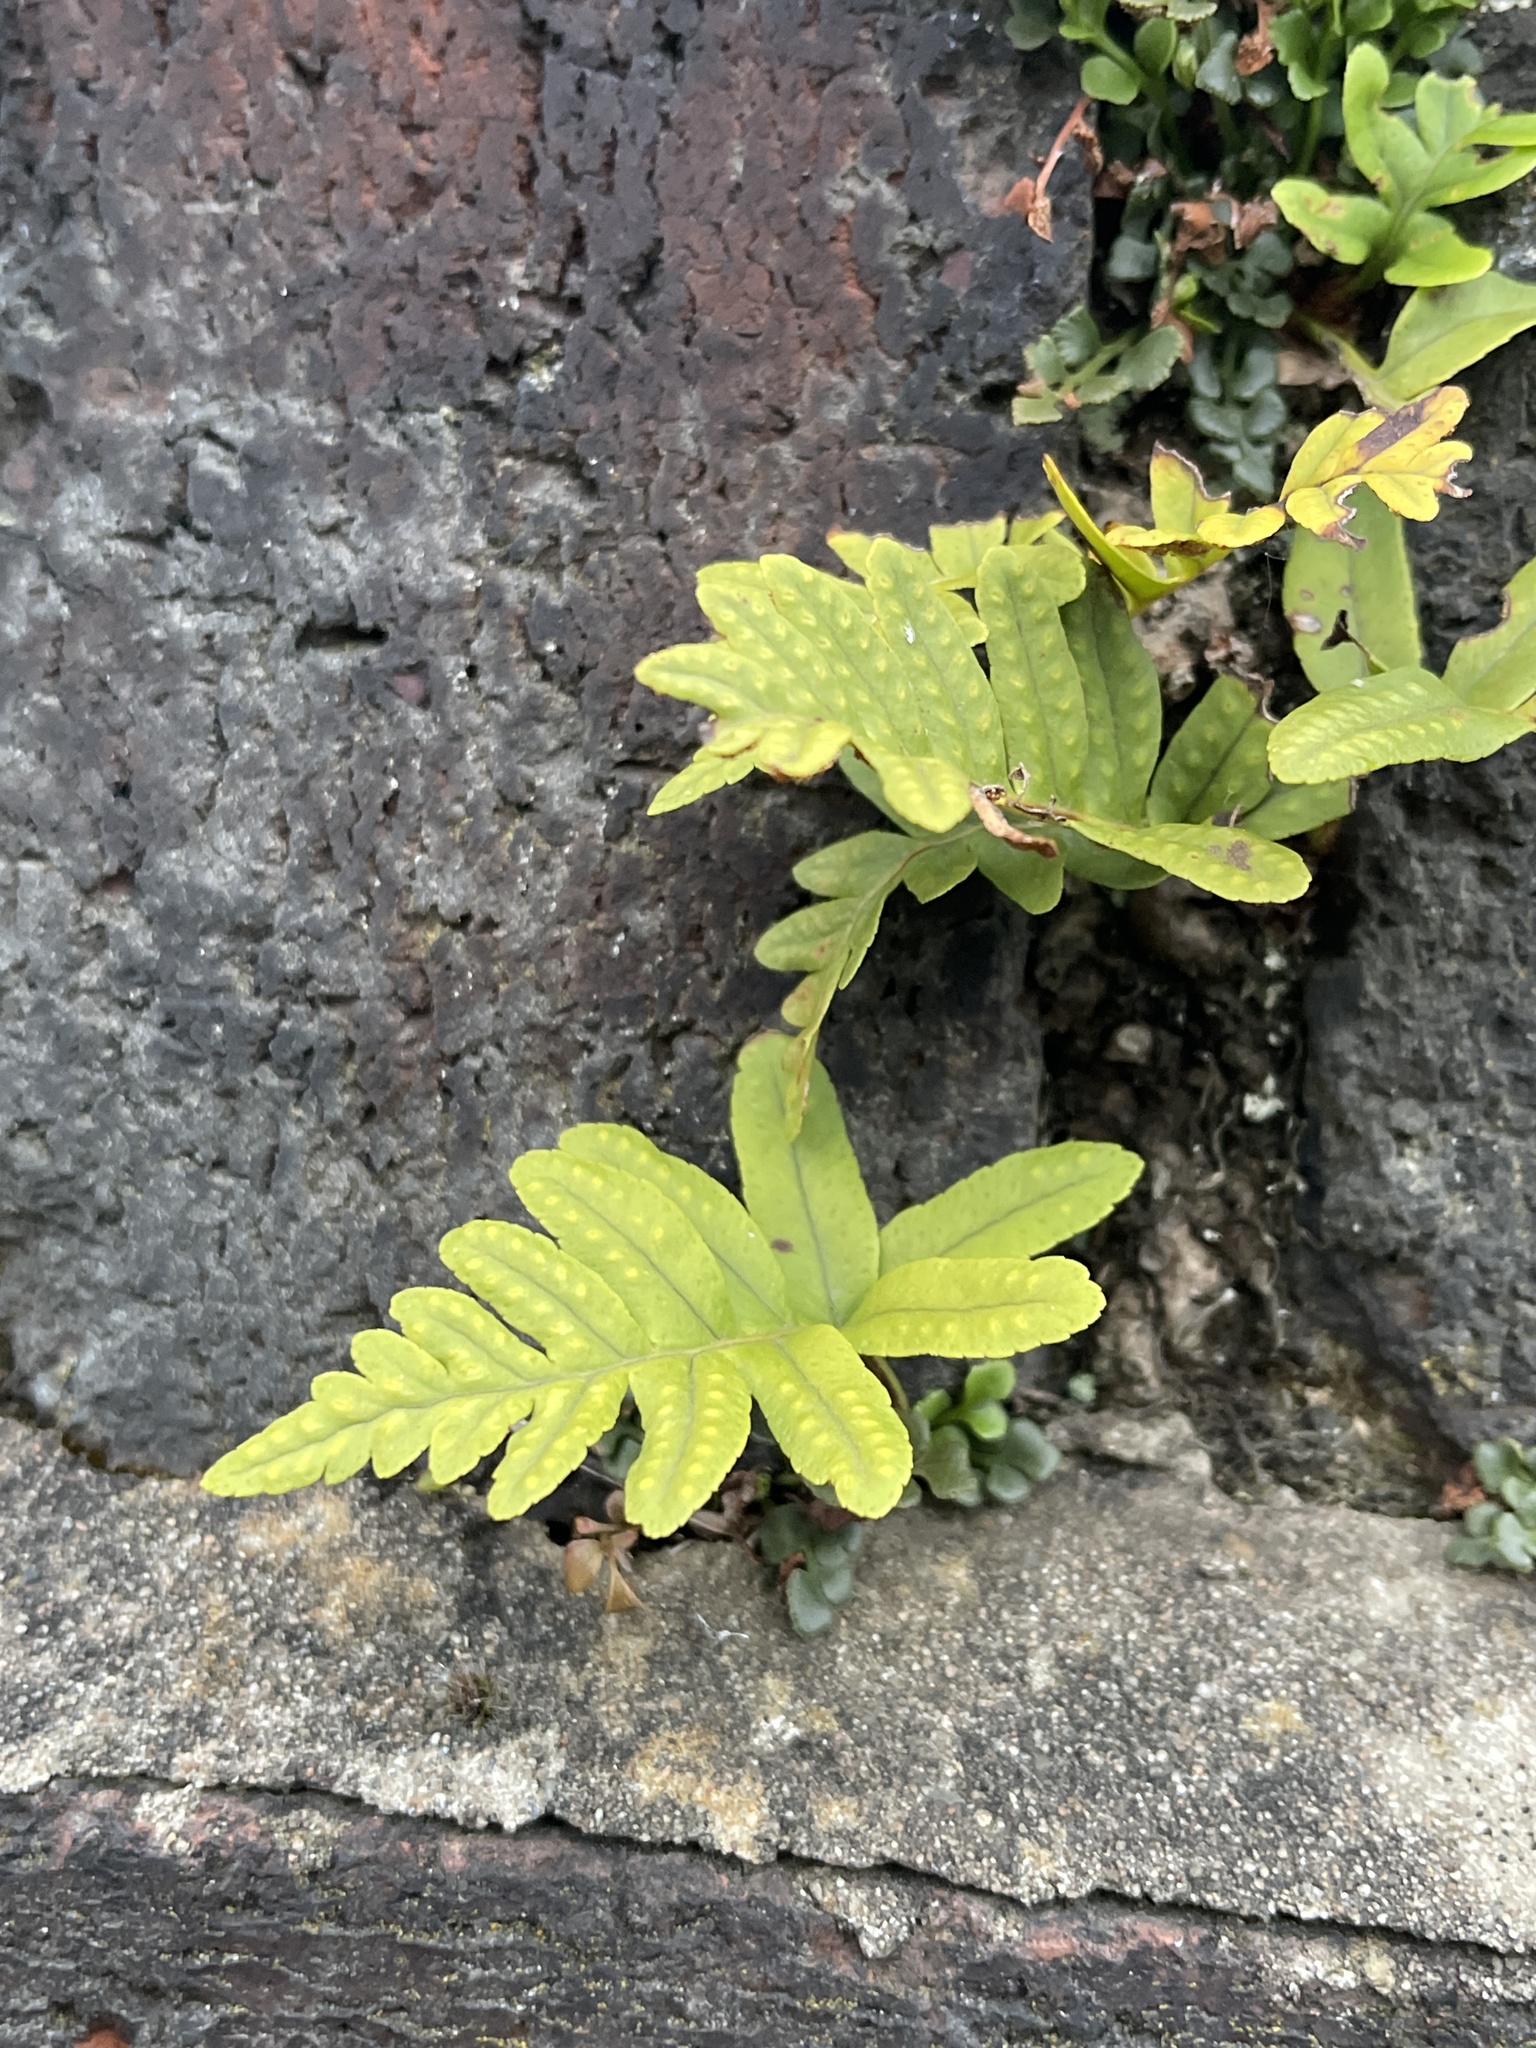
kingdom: Plantae
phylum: Tracheophyta
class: Polypodiopsida
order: Polypodiales
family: Polypodiaceae
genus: Polypodium
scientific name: Polypodium vulgare
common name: Common polypody
